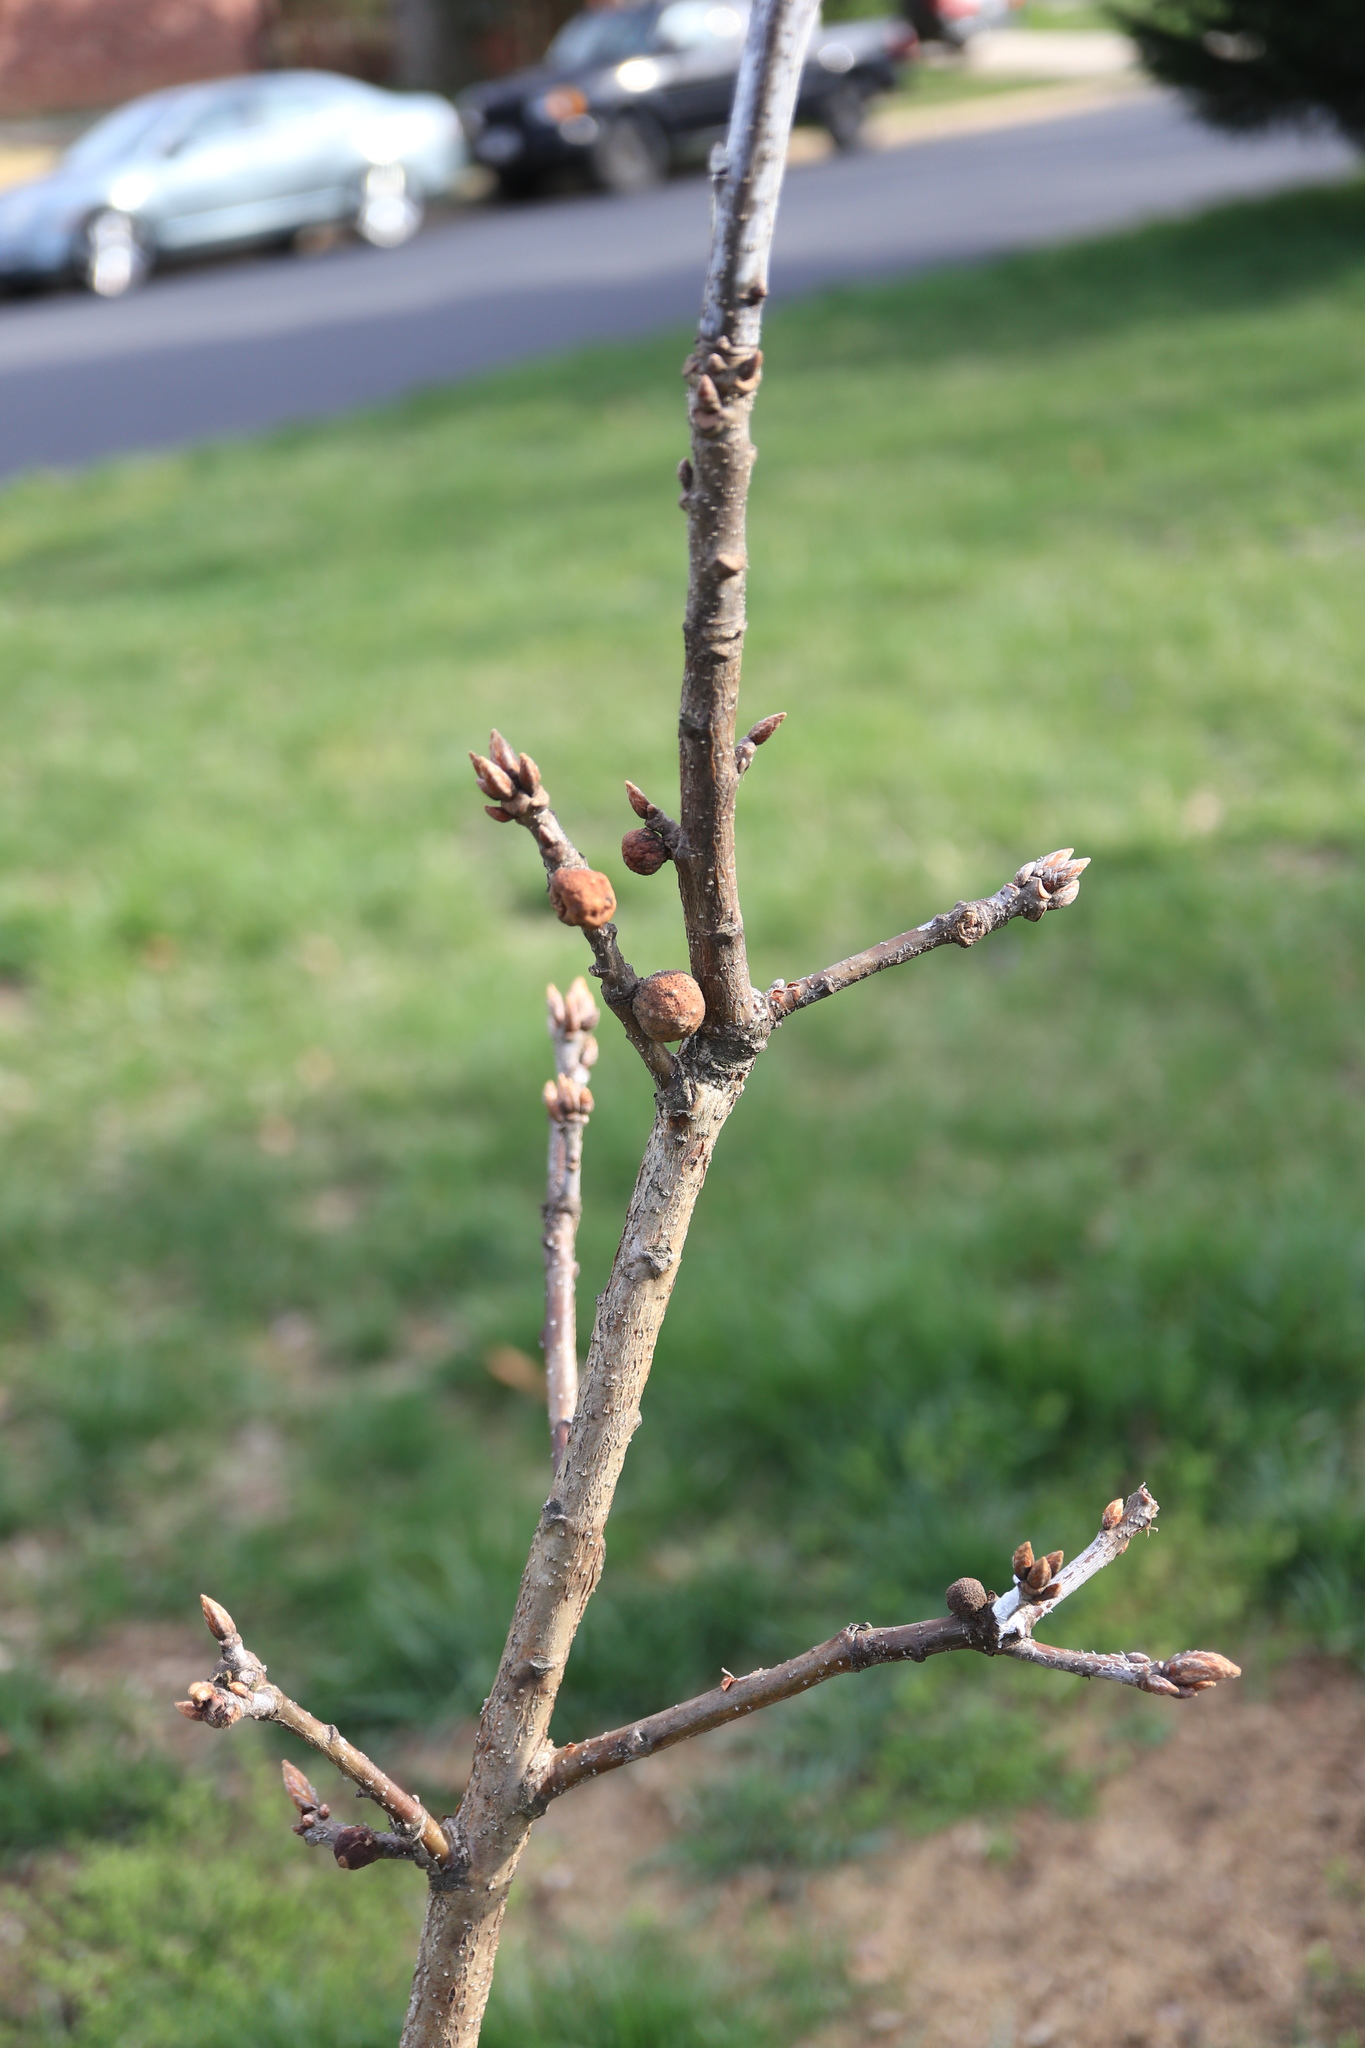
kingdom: Animalia
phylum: Arthropoda
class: Insecta
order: Hymenoptera
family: Cynipidae
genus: Disholcaspis
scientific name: Disholcaspis quercusglobulus
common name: Round bullet gall wasp
